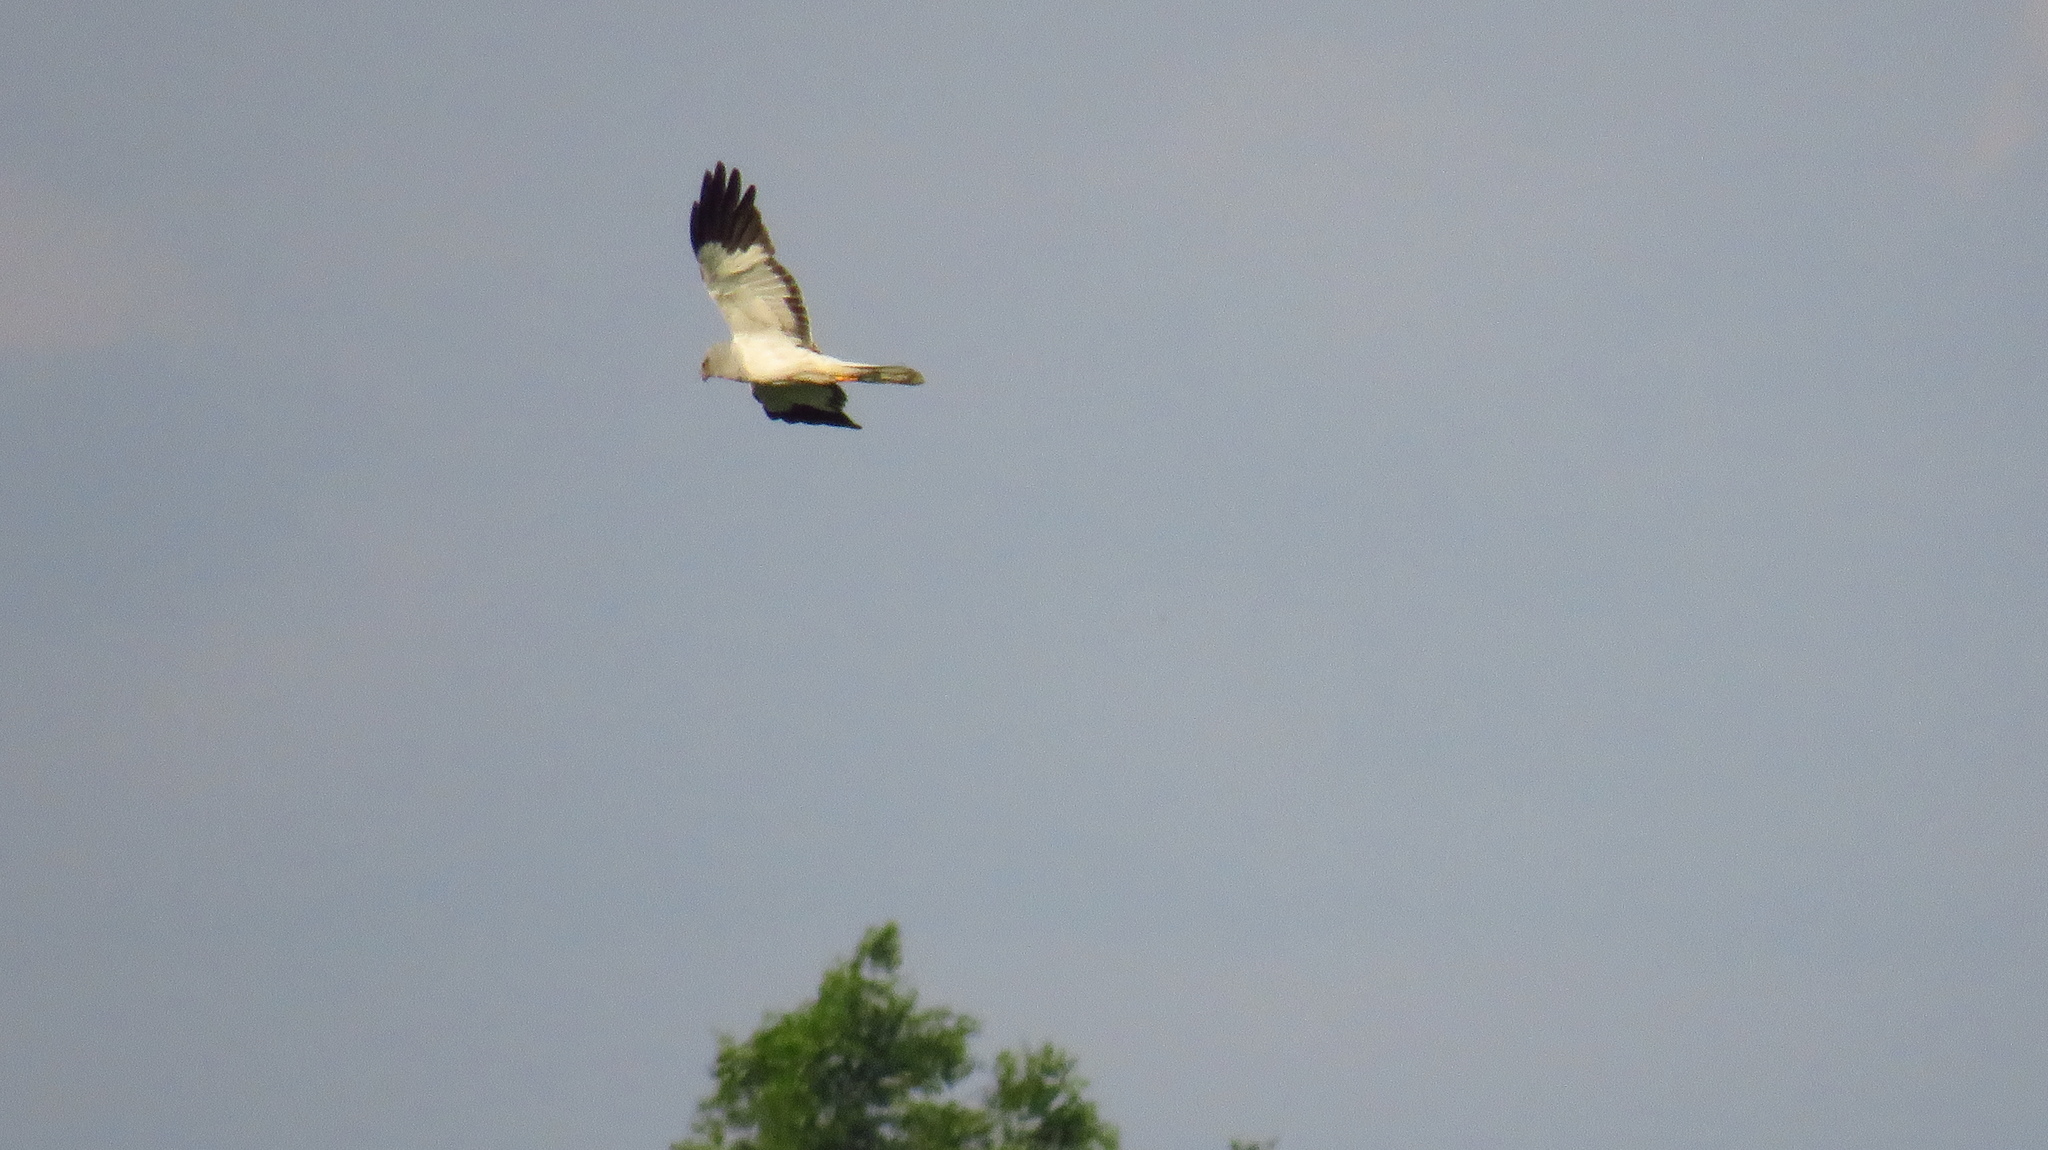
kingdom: Animalia
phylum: Chordata
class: Aves
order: Accipitriformes
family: Accipitridae
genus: Circus
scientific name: Circus cyaneus
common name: Hen harrier
